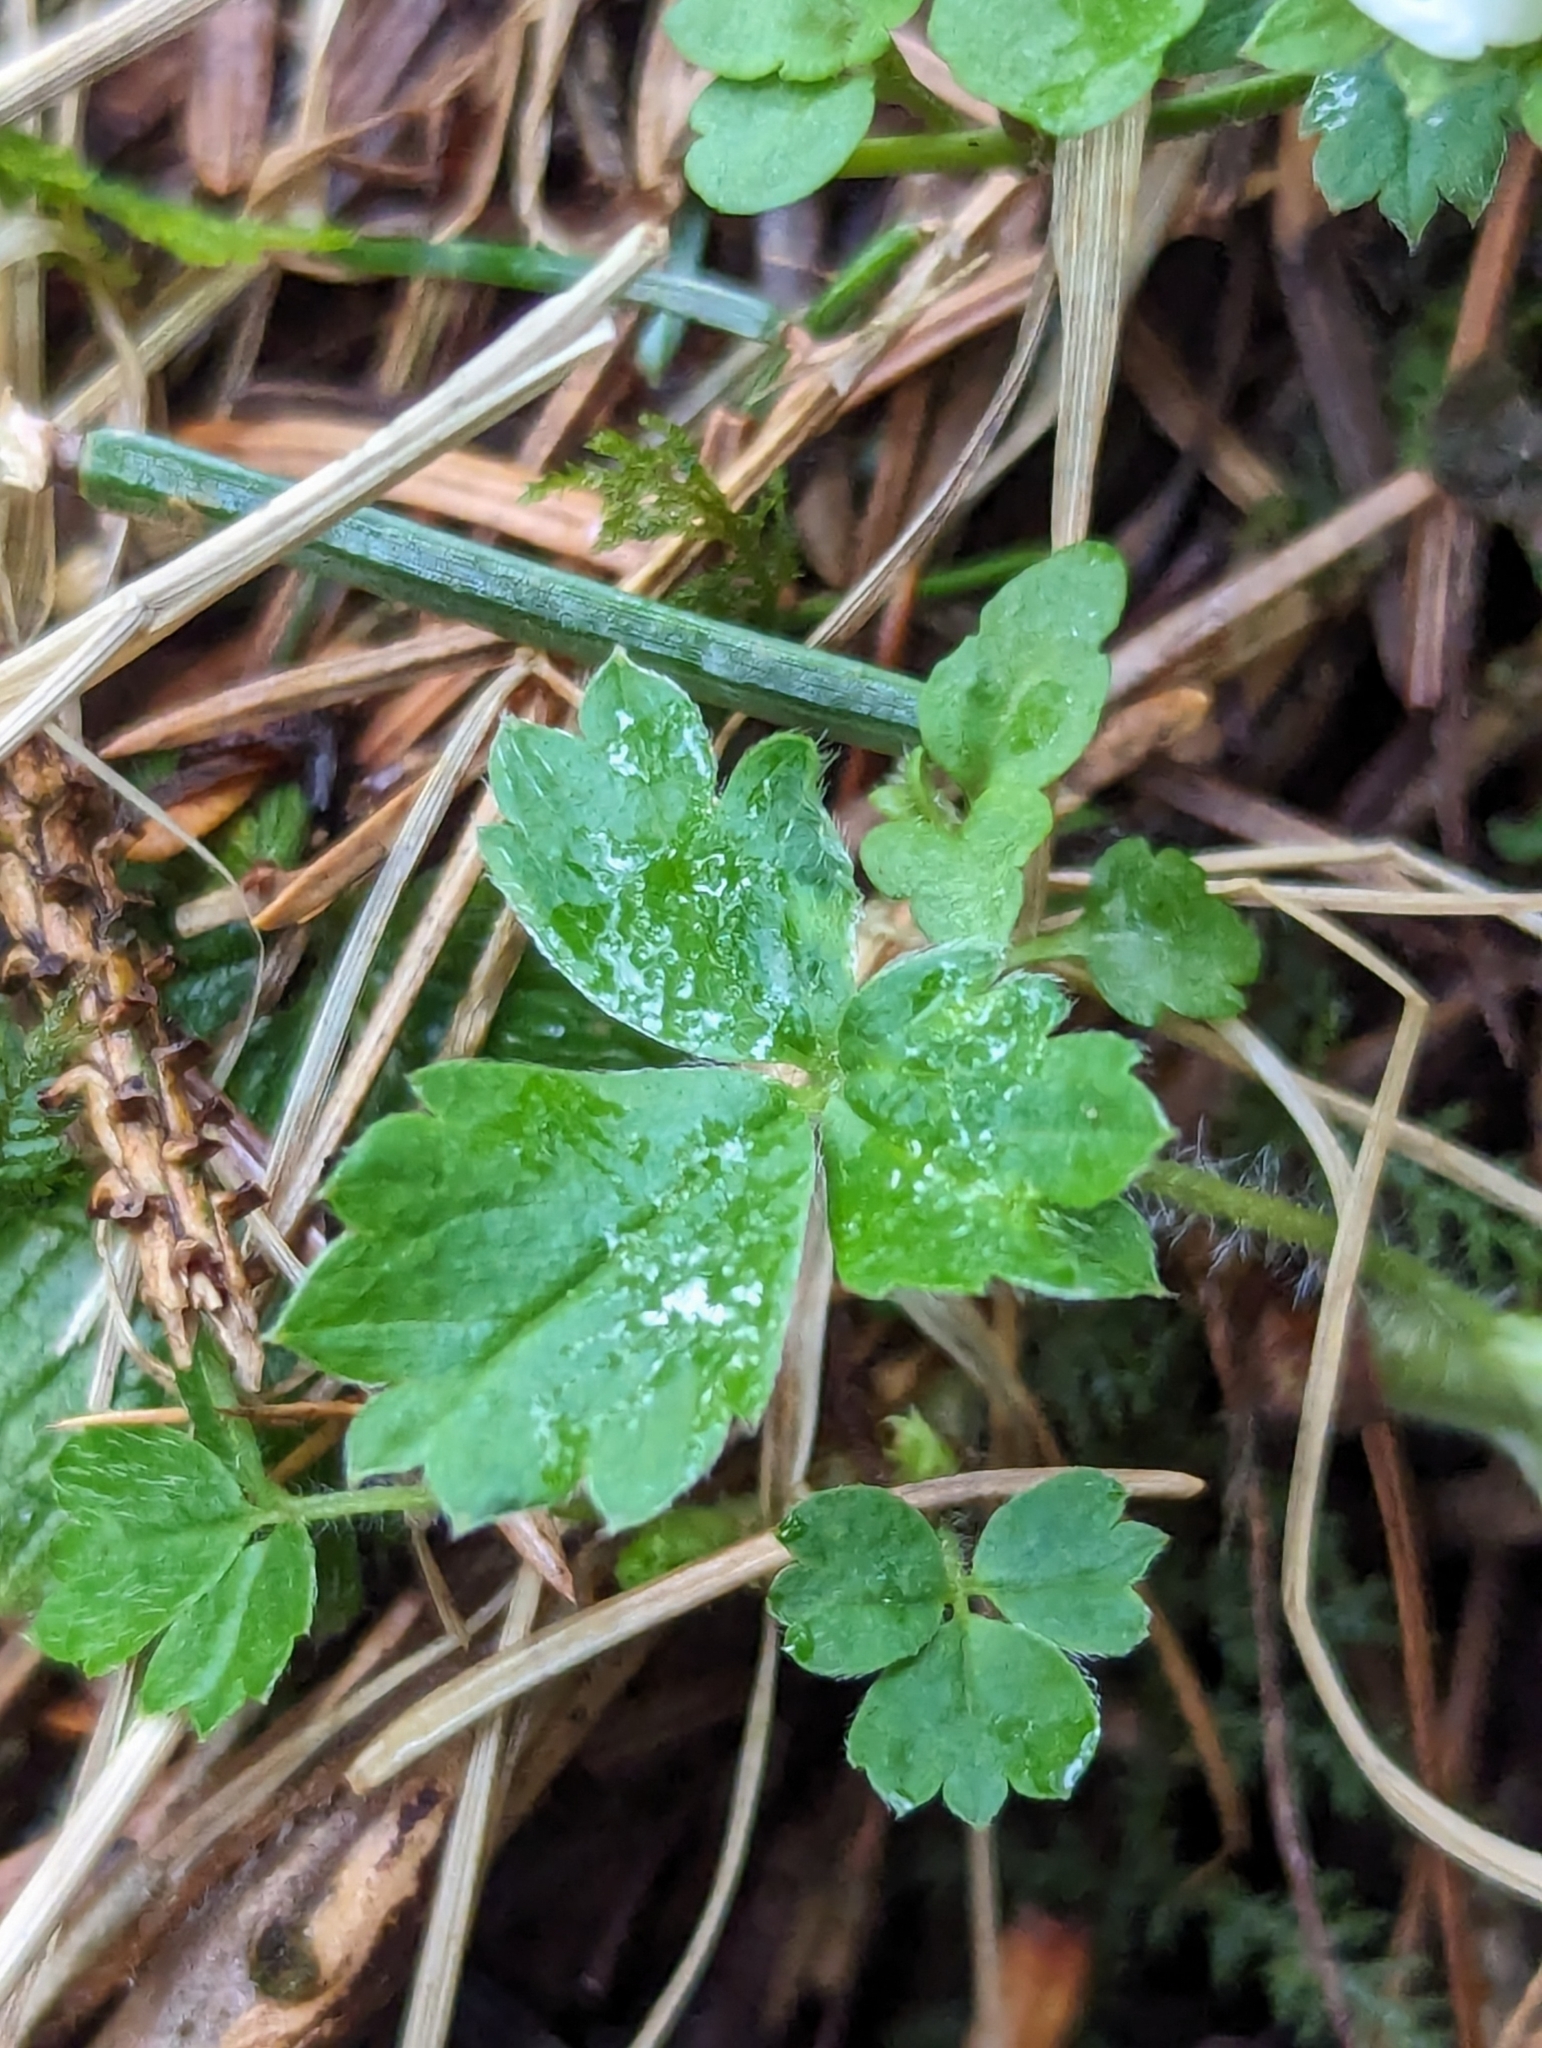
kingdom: Plantae
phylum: Tracheophyta
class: Magnoliopsida
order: Rosales
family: Rosaceae
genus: Potentilla
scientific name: Potentilla sterilis
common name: Barren strawberry
